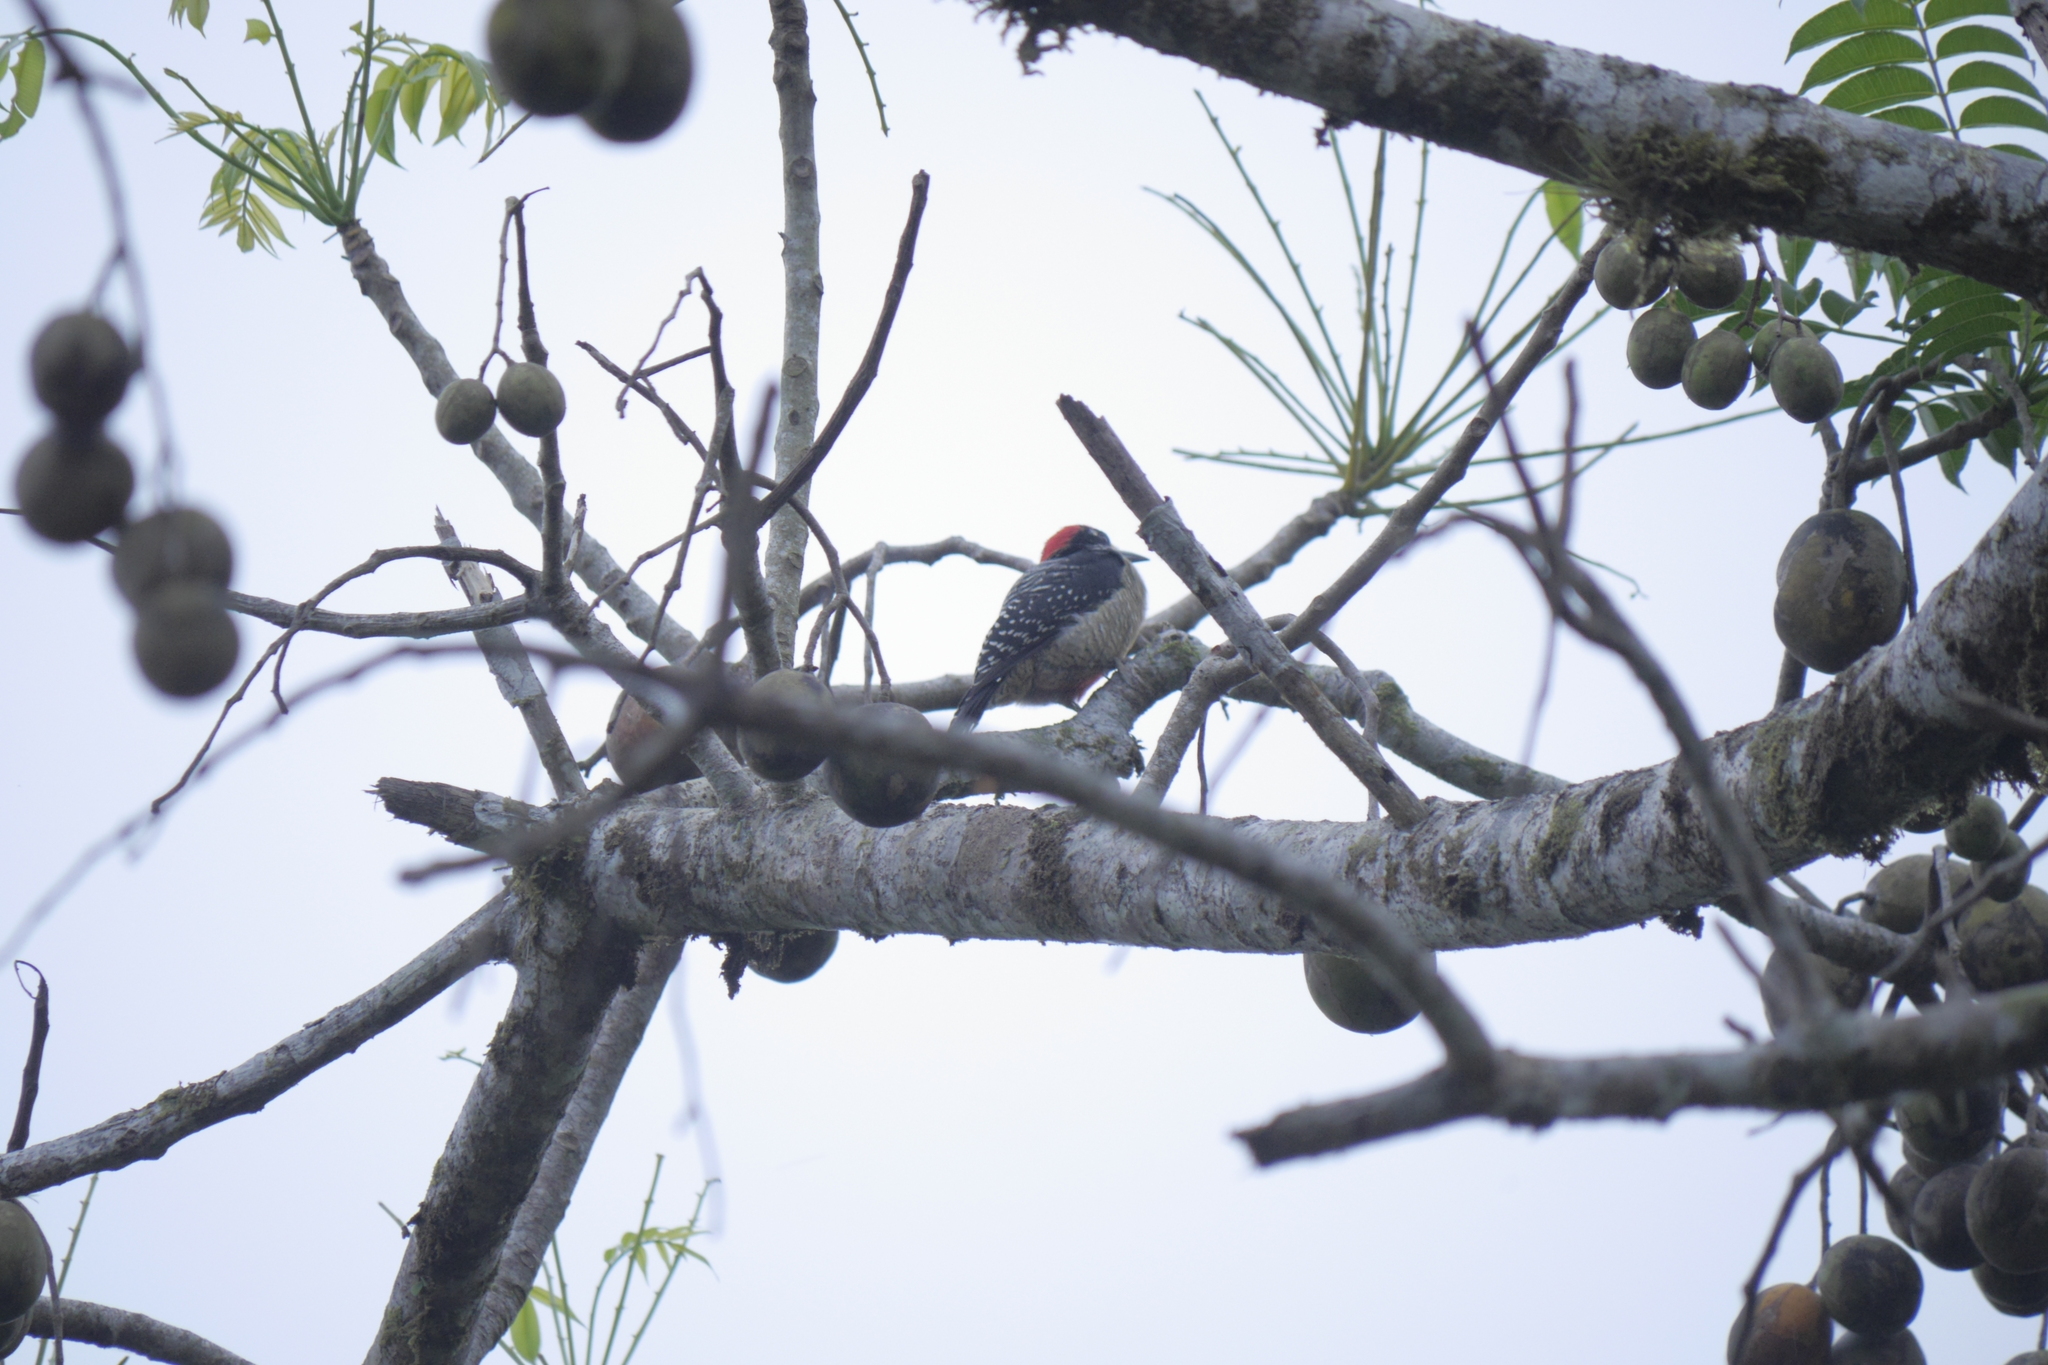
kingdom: Animalia
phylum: Chordata
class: Aves
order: Piciformes
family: Picidae
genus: Melanerpes
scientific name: Melanerpes pucherani
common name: Black-cheeked woodpecker
